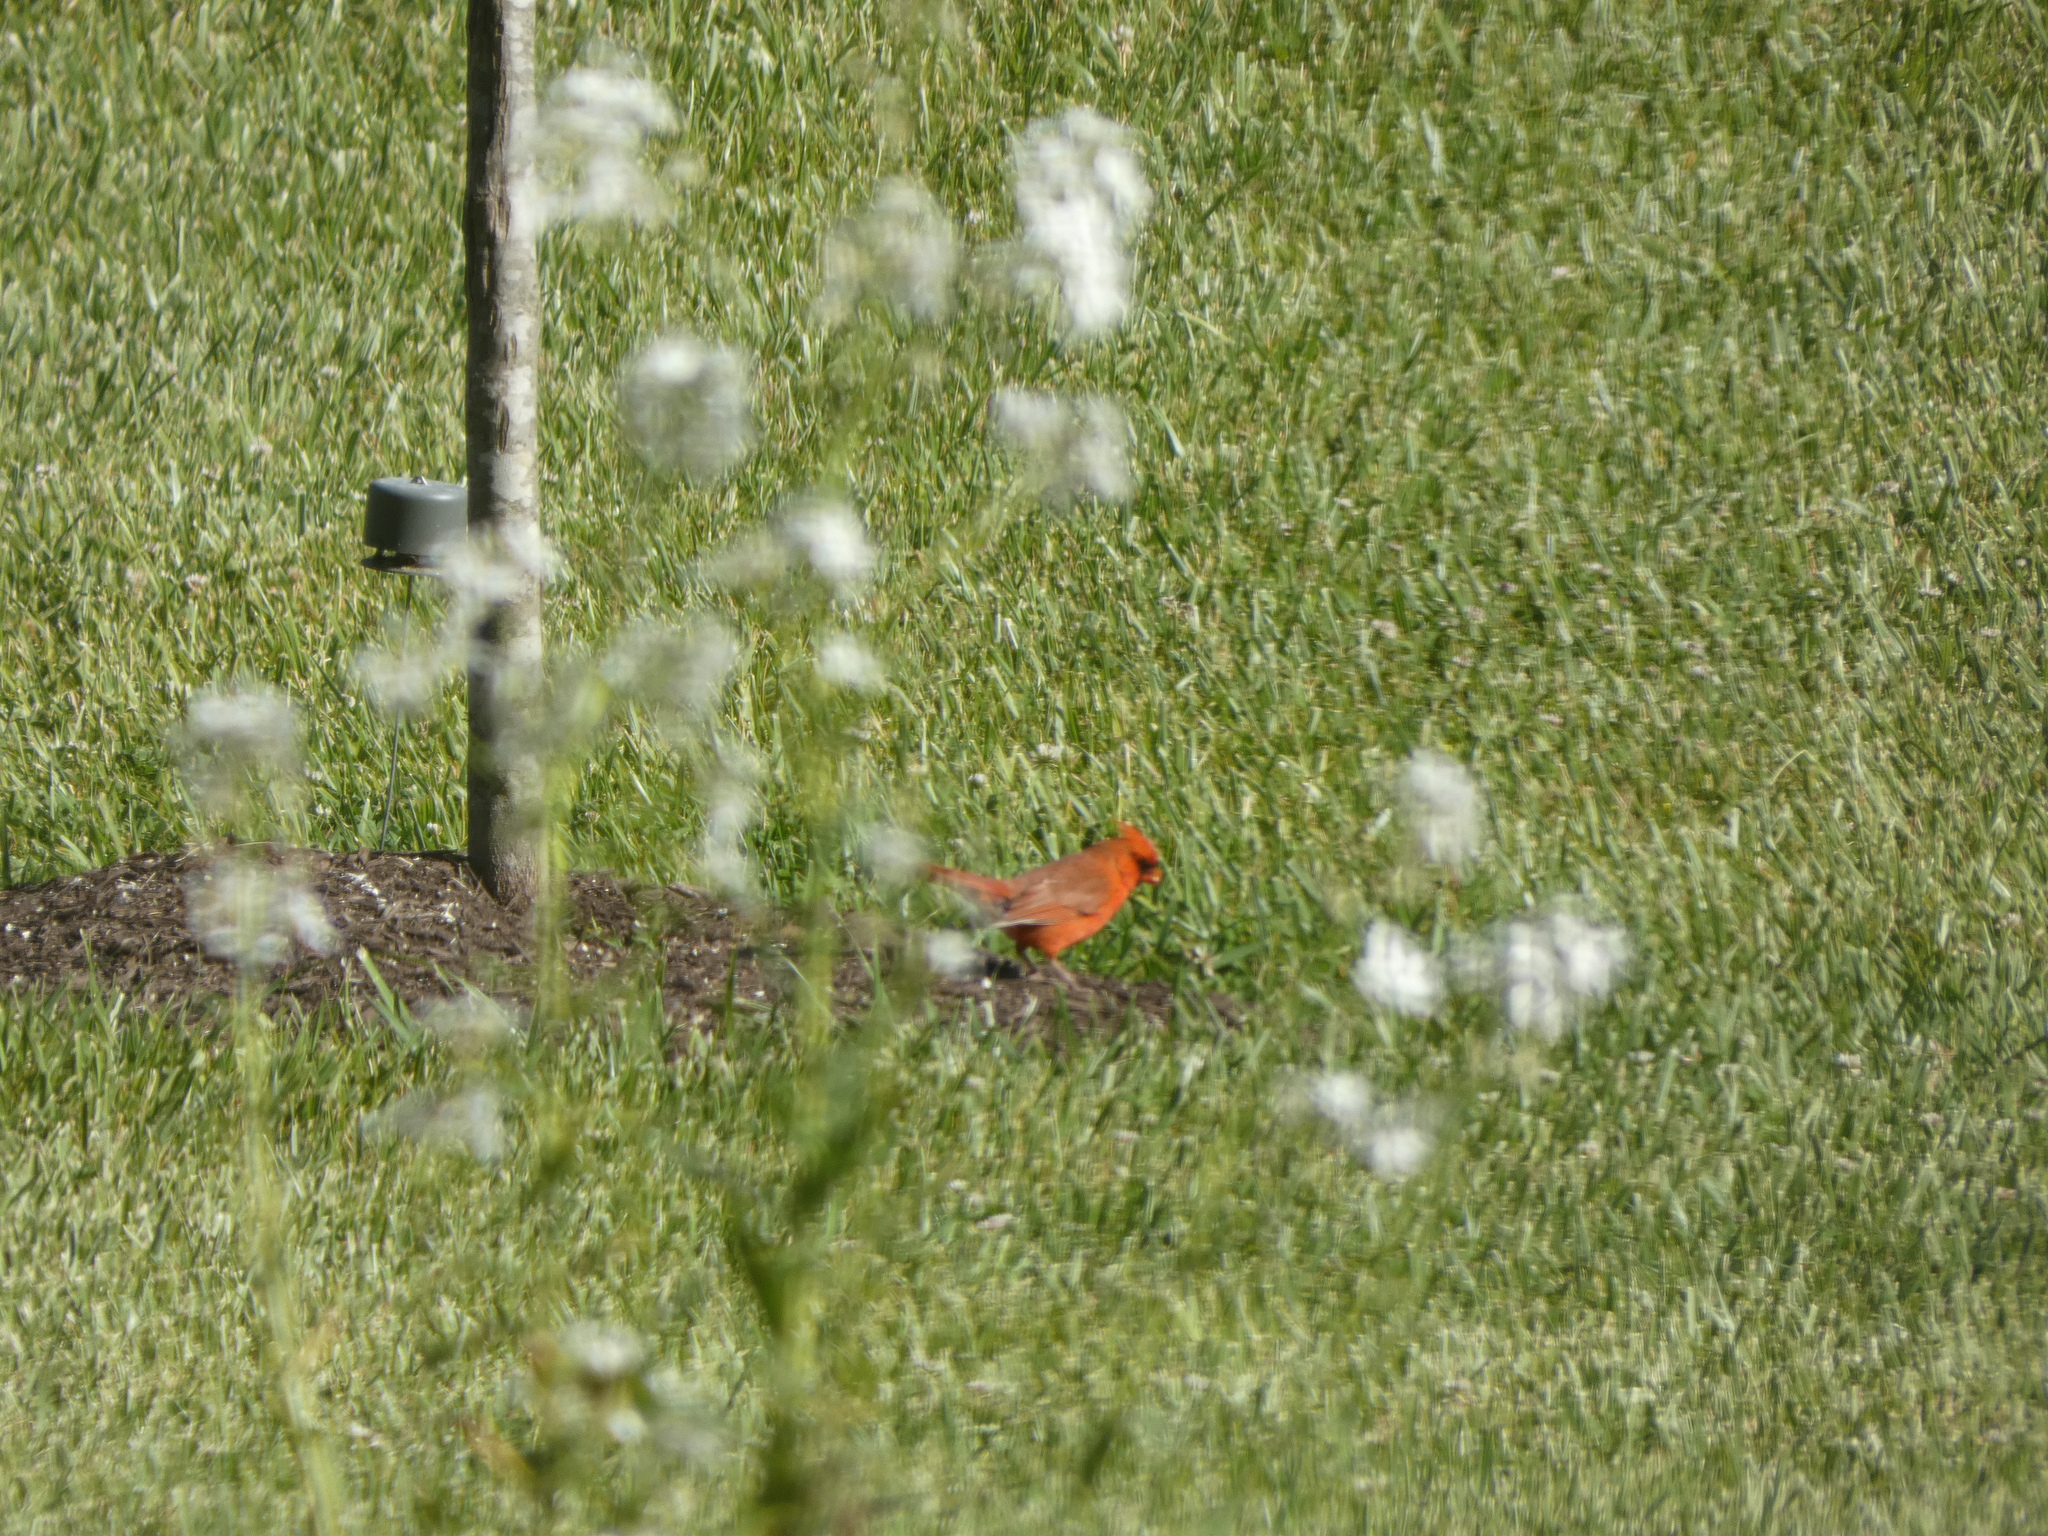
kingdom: Animalia
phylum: Chordata
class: Aves
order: Passeriformes
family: Cardinalidae
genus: Cardinalis
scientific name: Cardinalis cardinalis
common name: Northern cardinal
